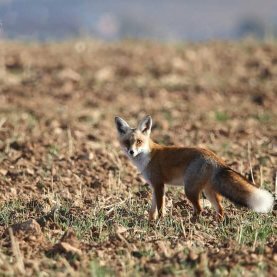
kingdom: Animalia
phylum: Chordata
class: Mammalia
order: Carnivora
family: Canidae
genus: Vulpes
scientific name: Vulpes vulpes
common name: Red fox
